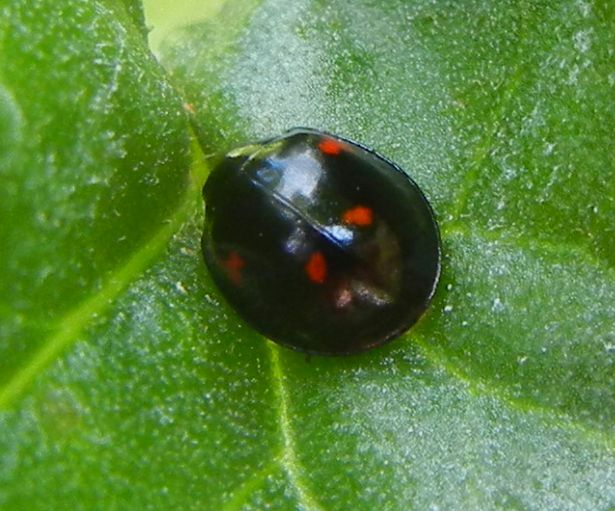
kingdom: Animalia
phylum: Arthropoda
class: Insecta
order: Coleoptera
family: Coccinellidae
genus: Brumus
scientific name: Brumus quadripustulatus
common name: Ladybird beetle
